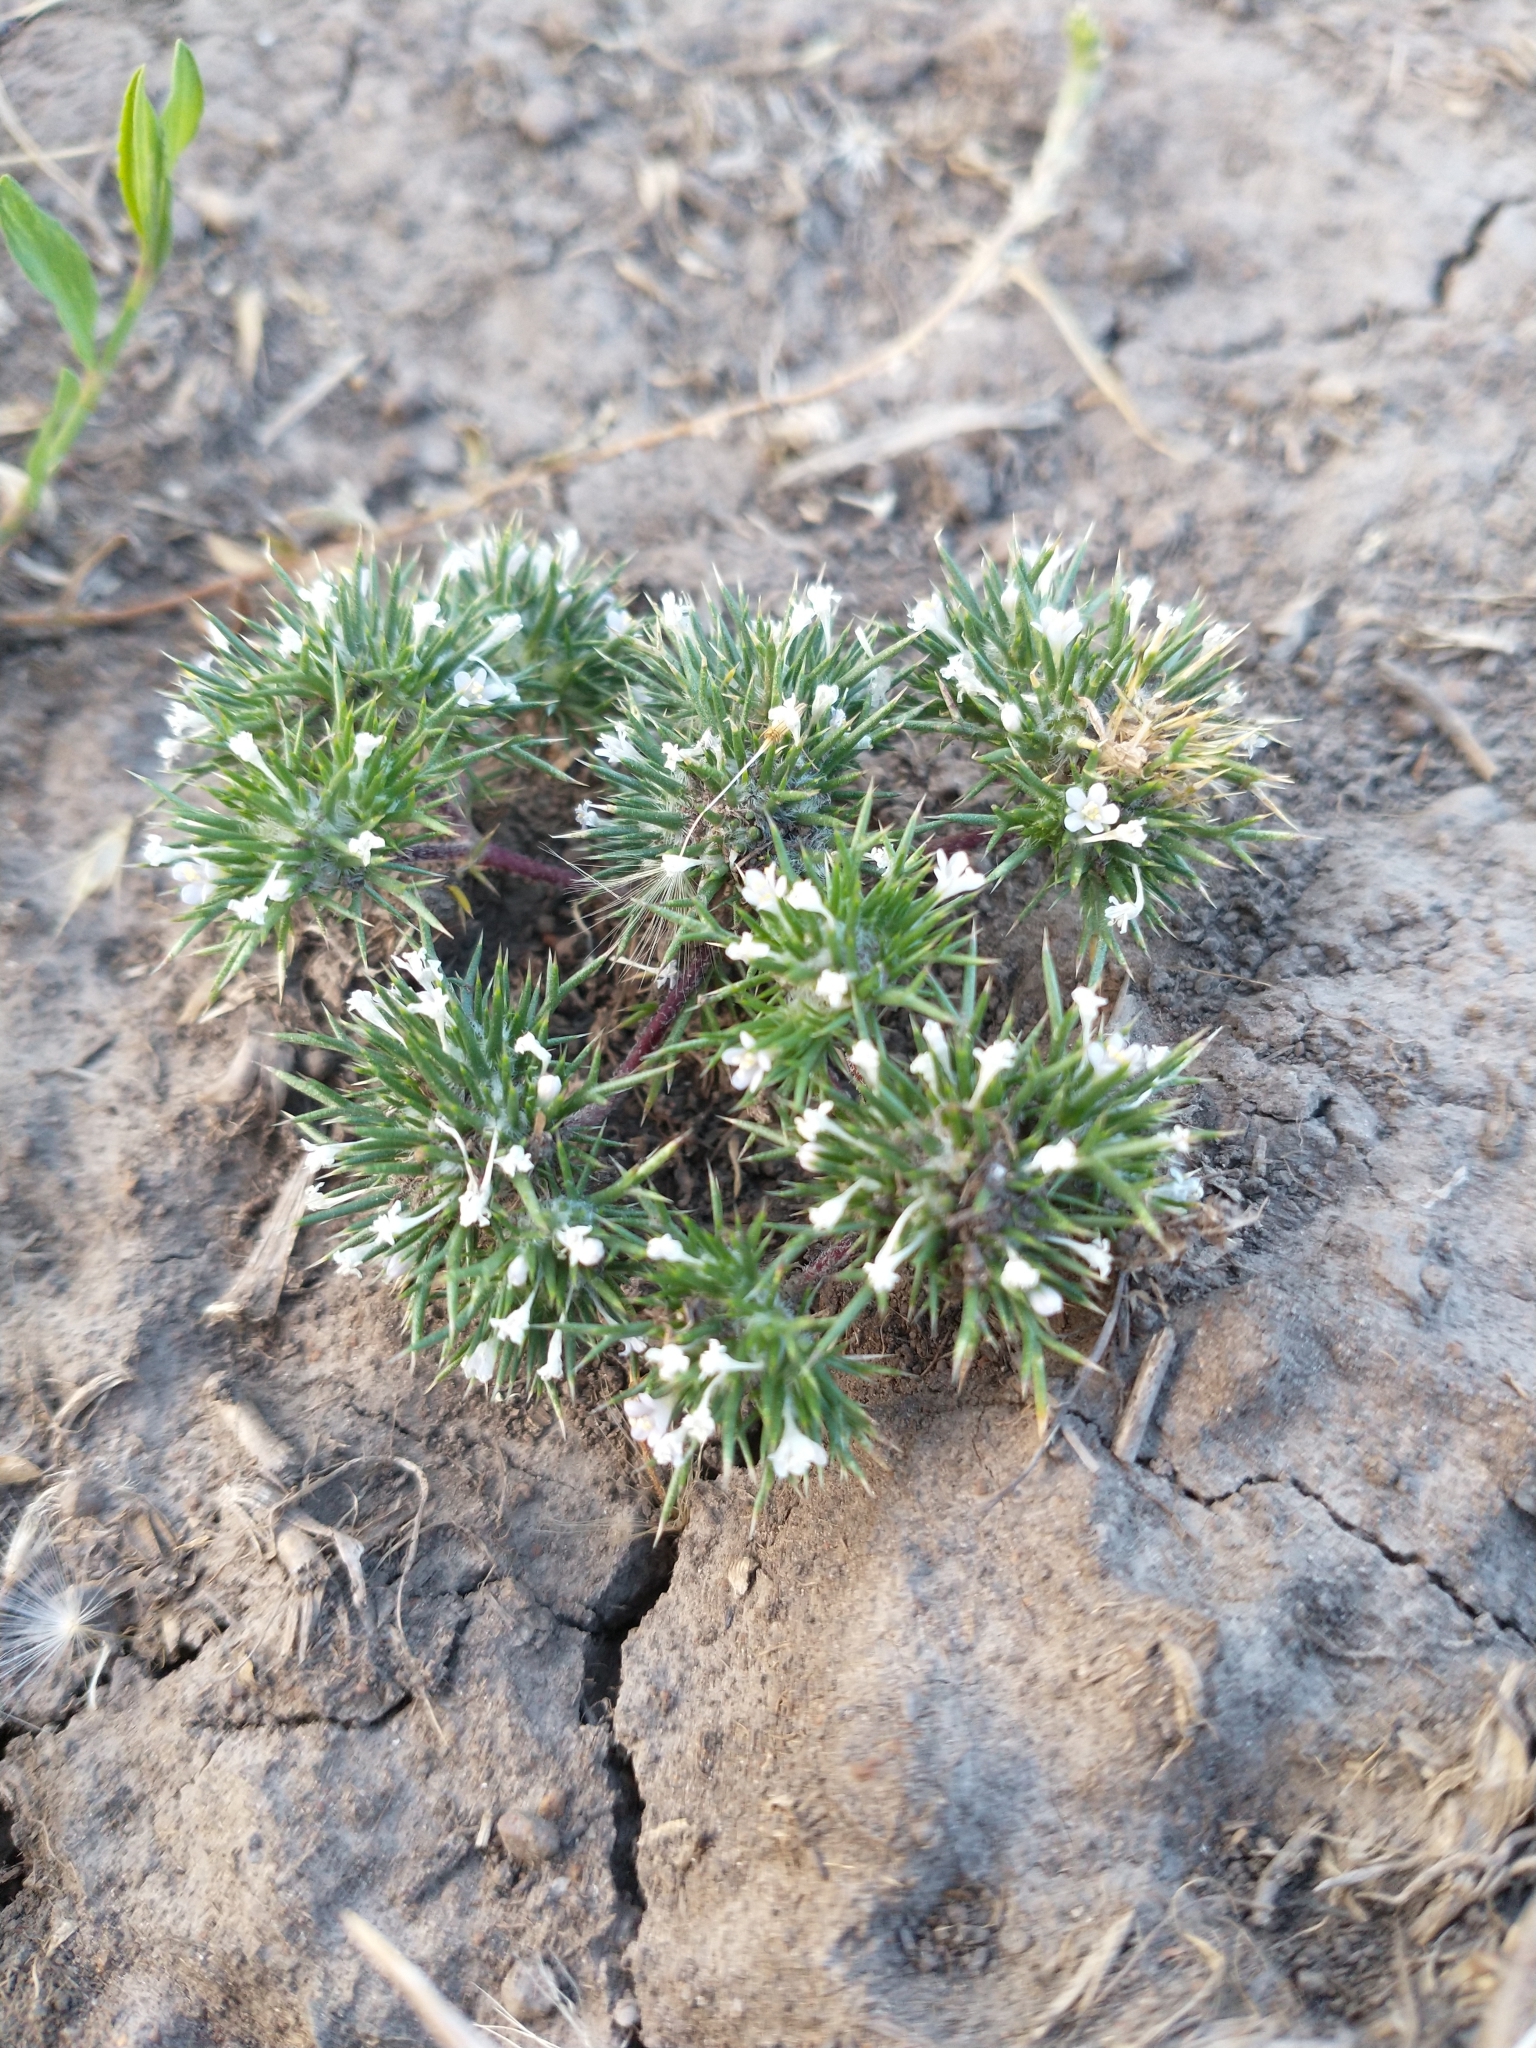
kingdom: Plantae
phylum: Tracheophyta
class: Magnoliopsida
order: Ericales
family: Polemoniaceae
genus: Navarretia
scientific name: Navarretia intertexta
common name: Needle-leaved navarretia
